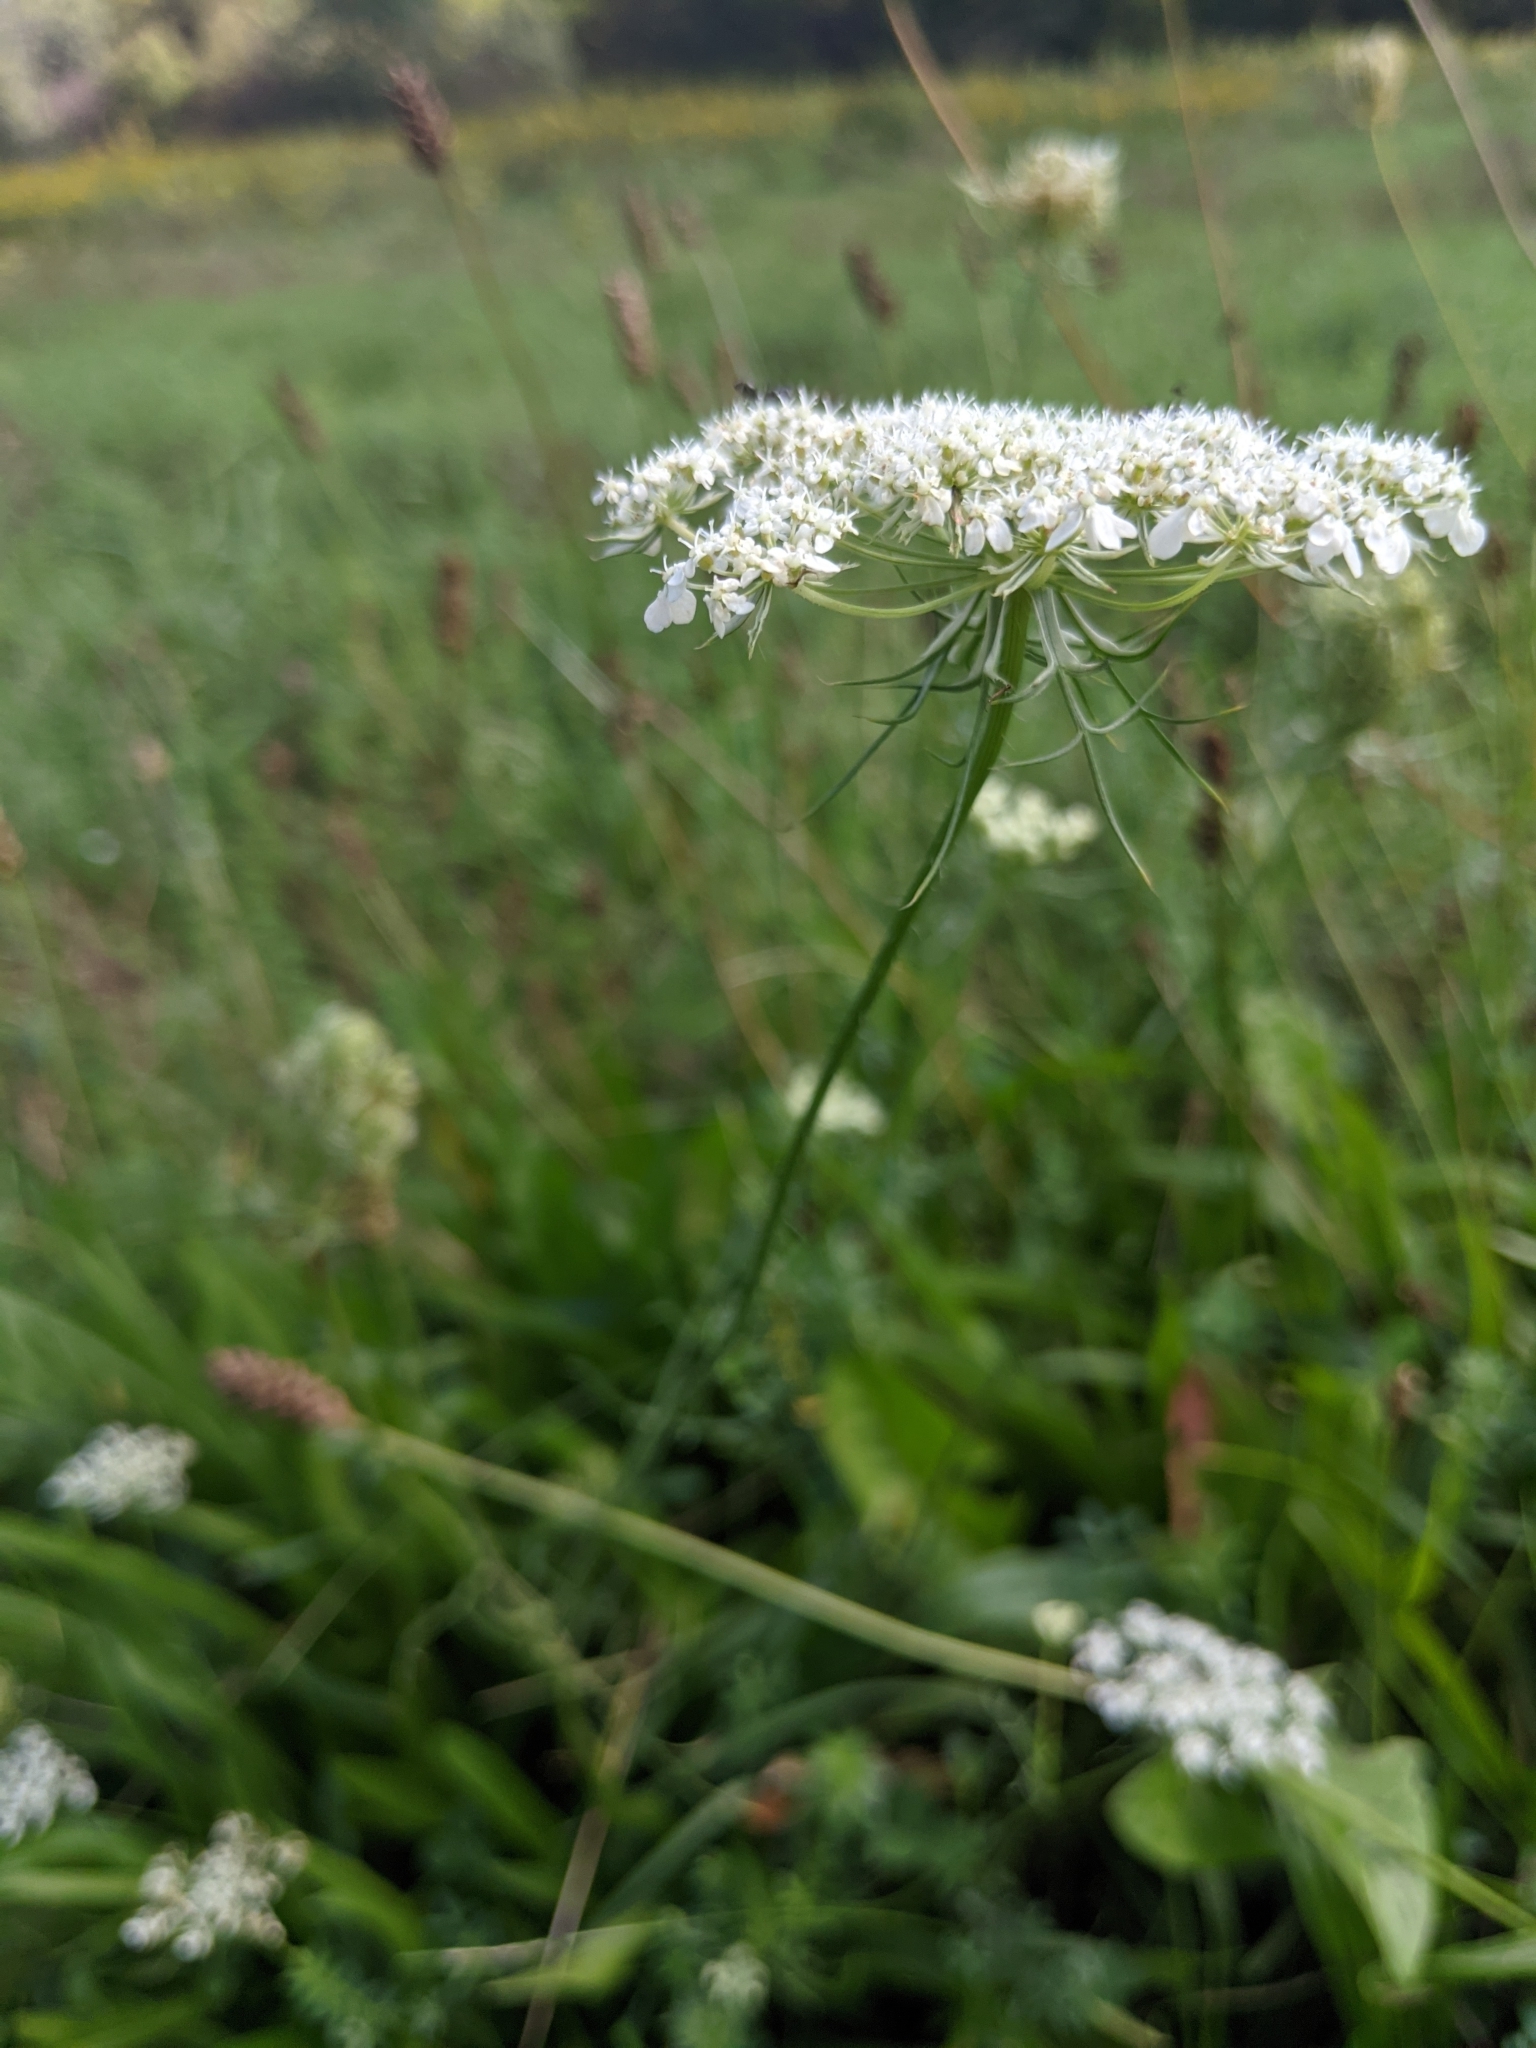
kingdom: Plantae
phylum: Tracheophyta
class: Magnoliopsida
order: Apiales
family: Apiaceae
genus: Daucus
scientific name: Daucus carota
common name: Wild carrot
